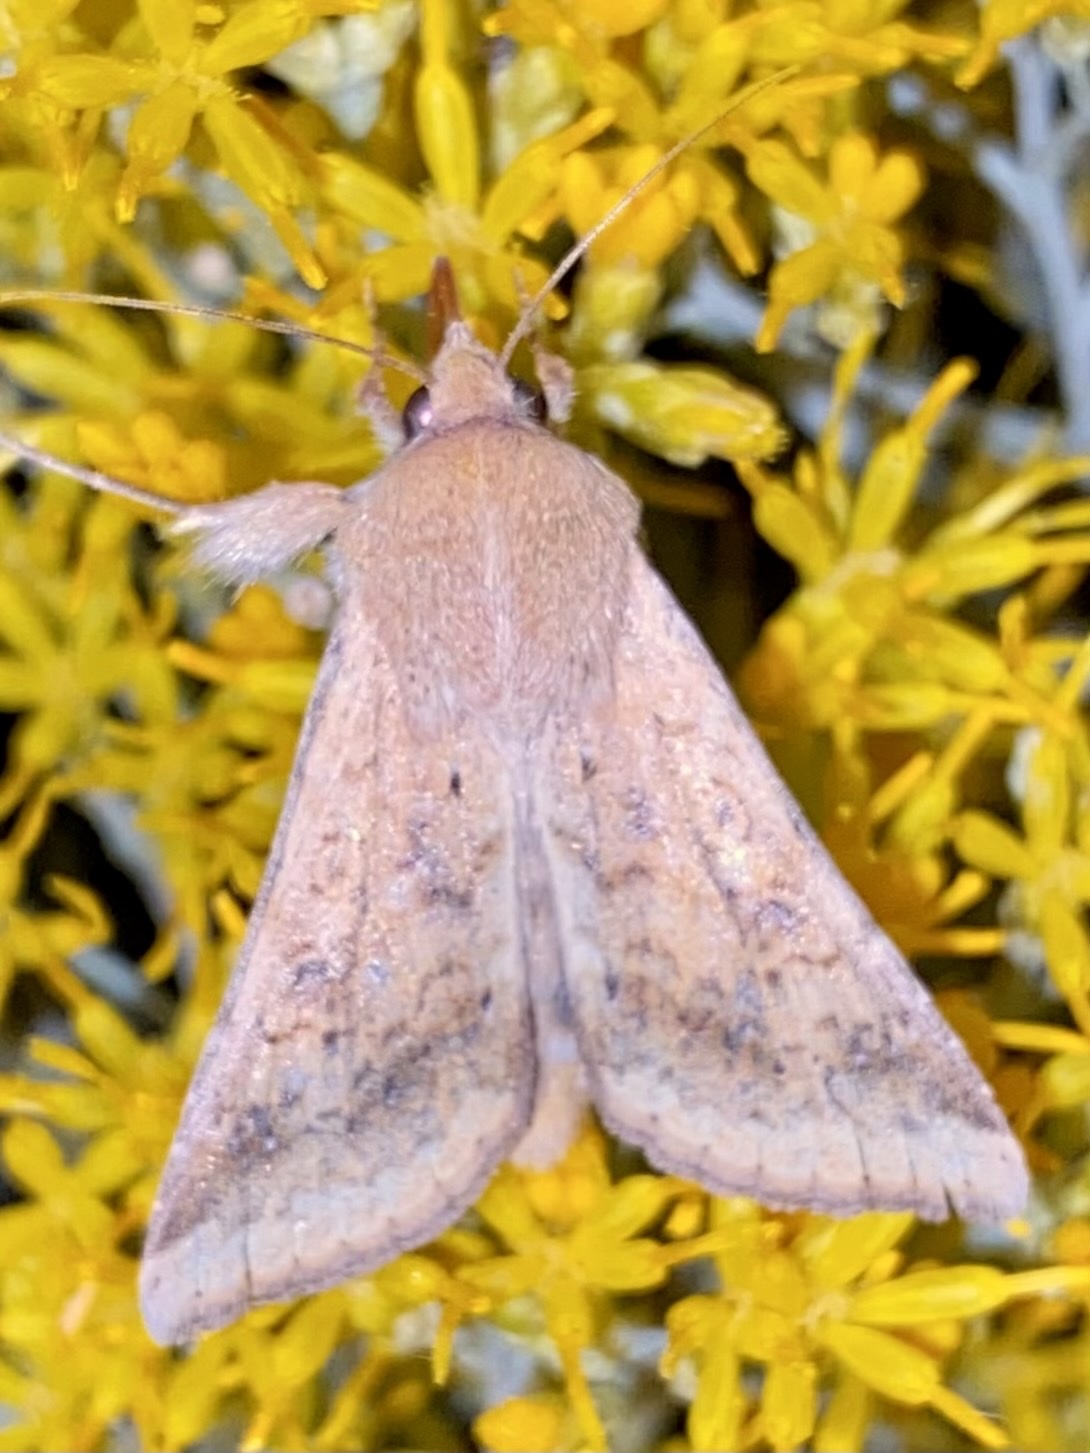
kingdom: Animalia
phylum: Arthropoda
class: Insecta
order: Lepidoptera
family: Noctuidae
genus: Helicoverpa
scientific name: Helicoverpa zea
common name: Bollworm
